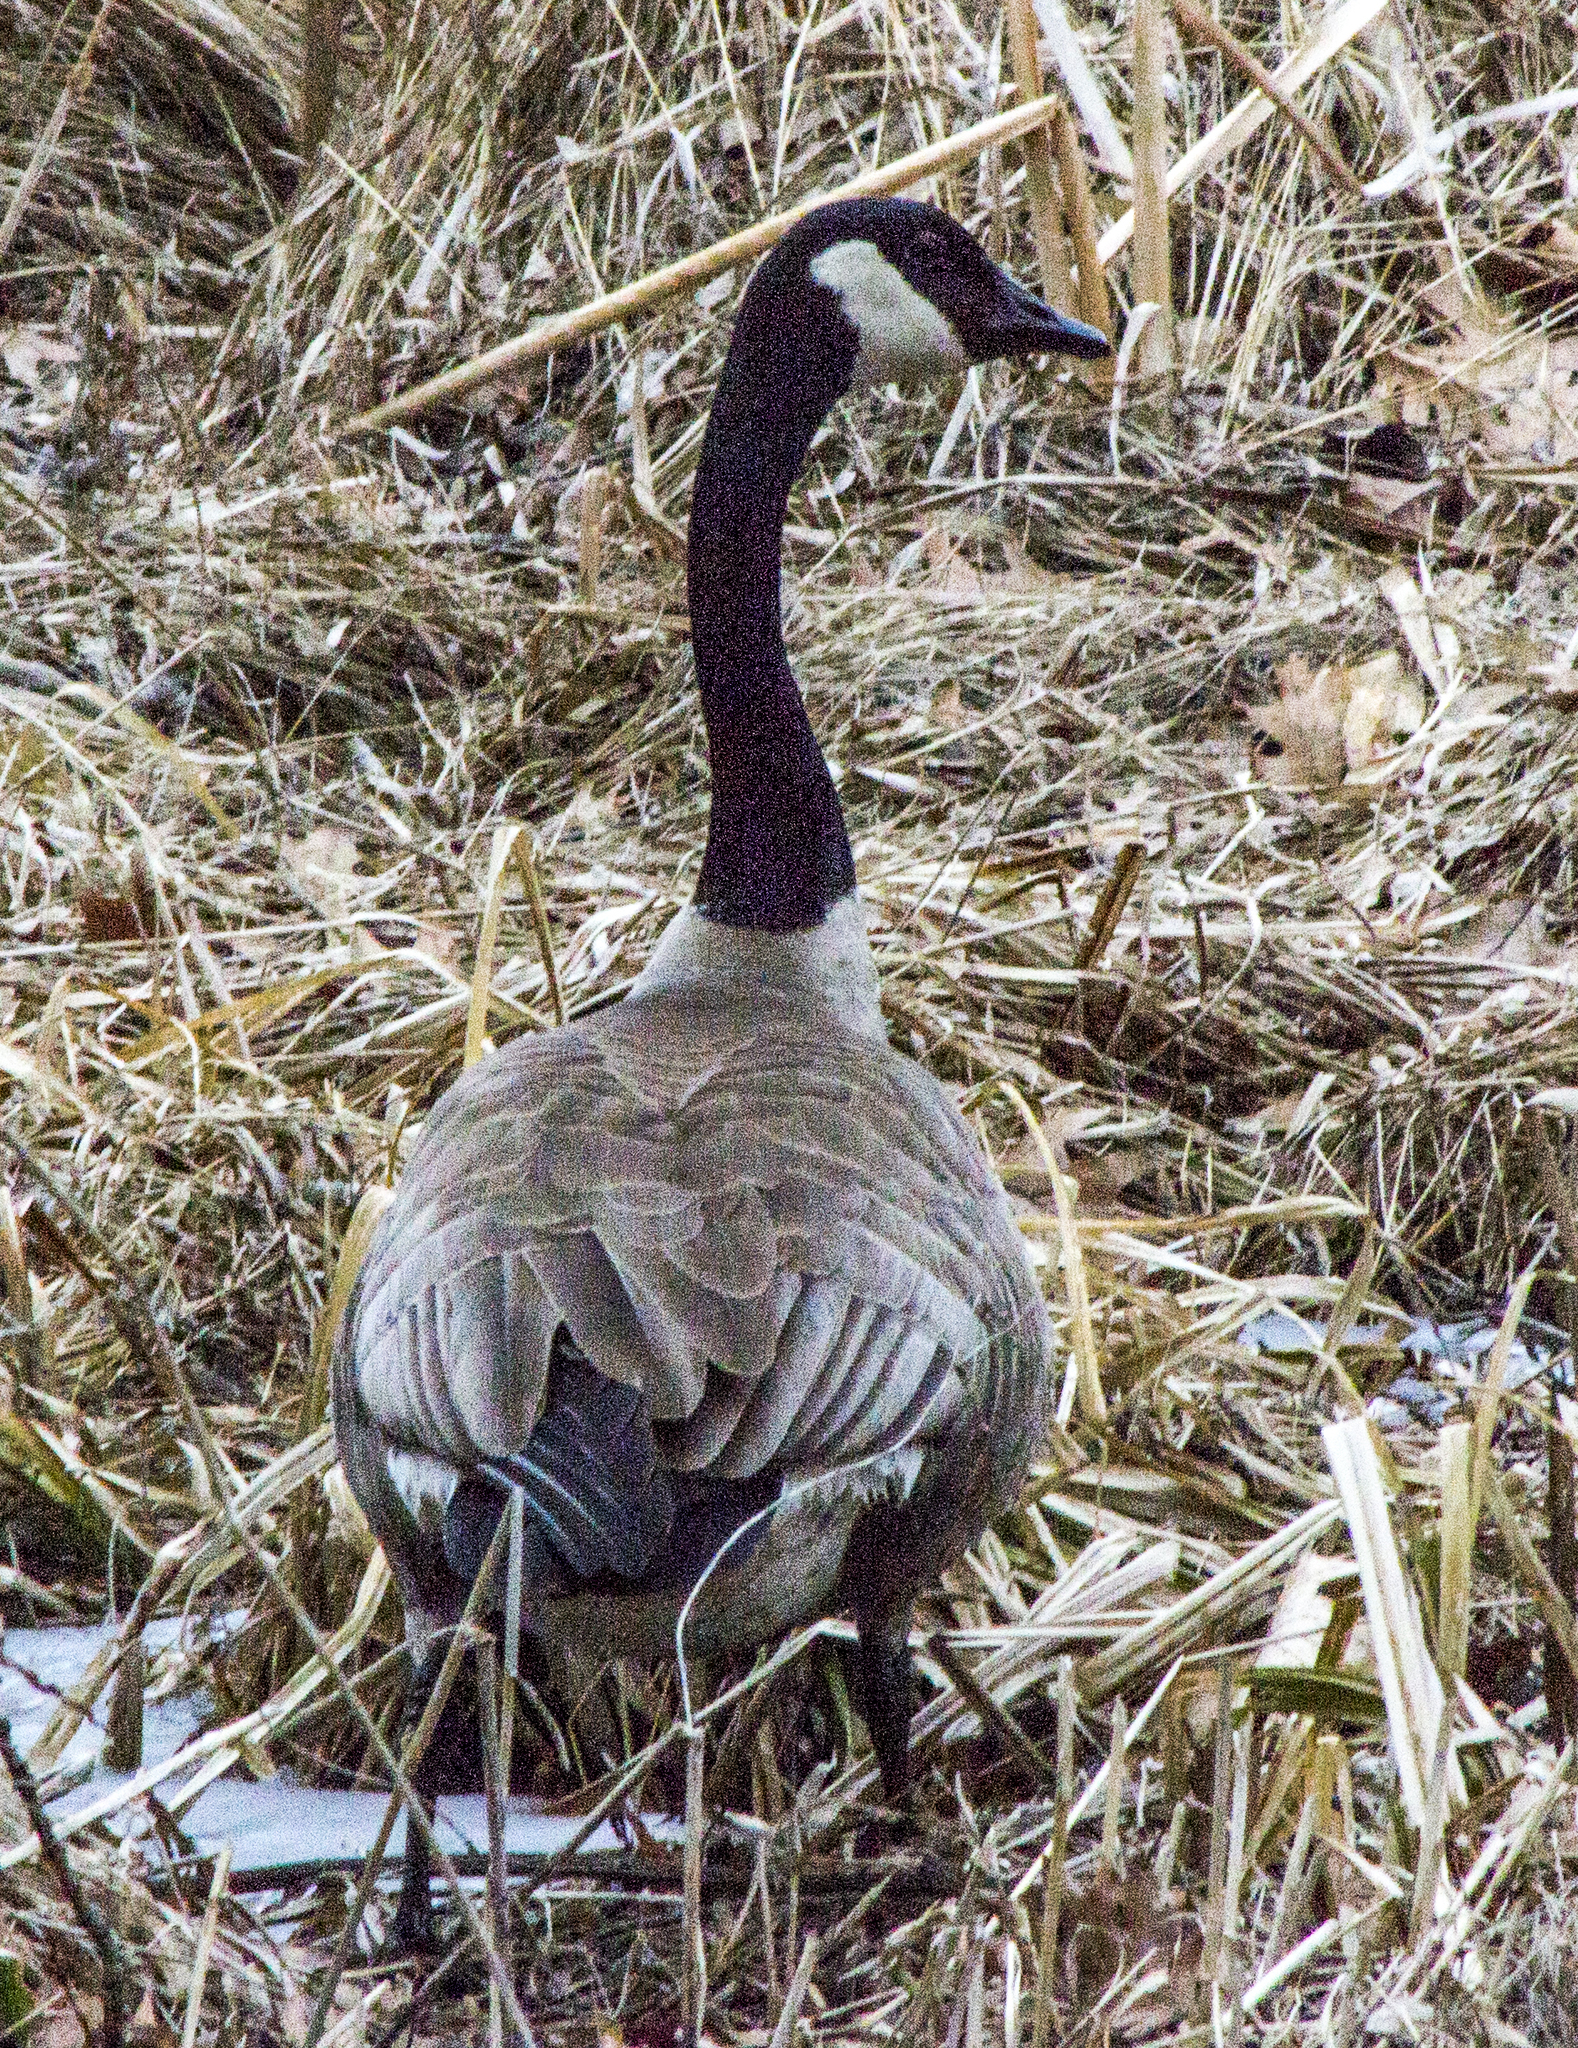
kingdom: Animalia
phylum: Chordata
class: Aves
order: Anseriformes
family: Anatidae
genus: Branta
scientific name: Branta canadensis
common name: Canada goose
